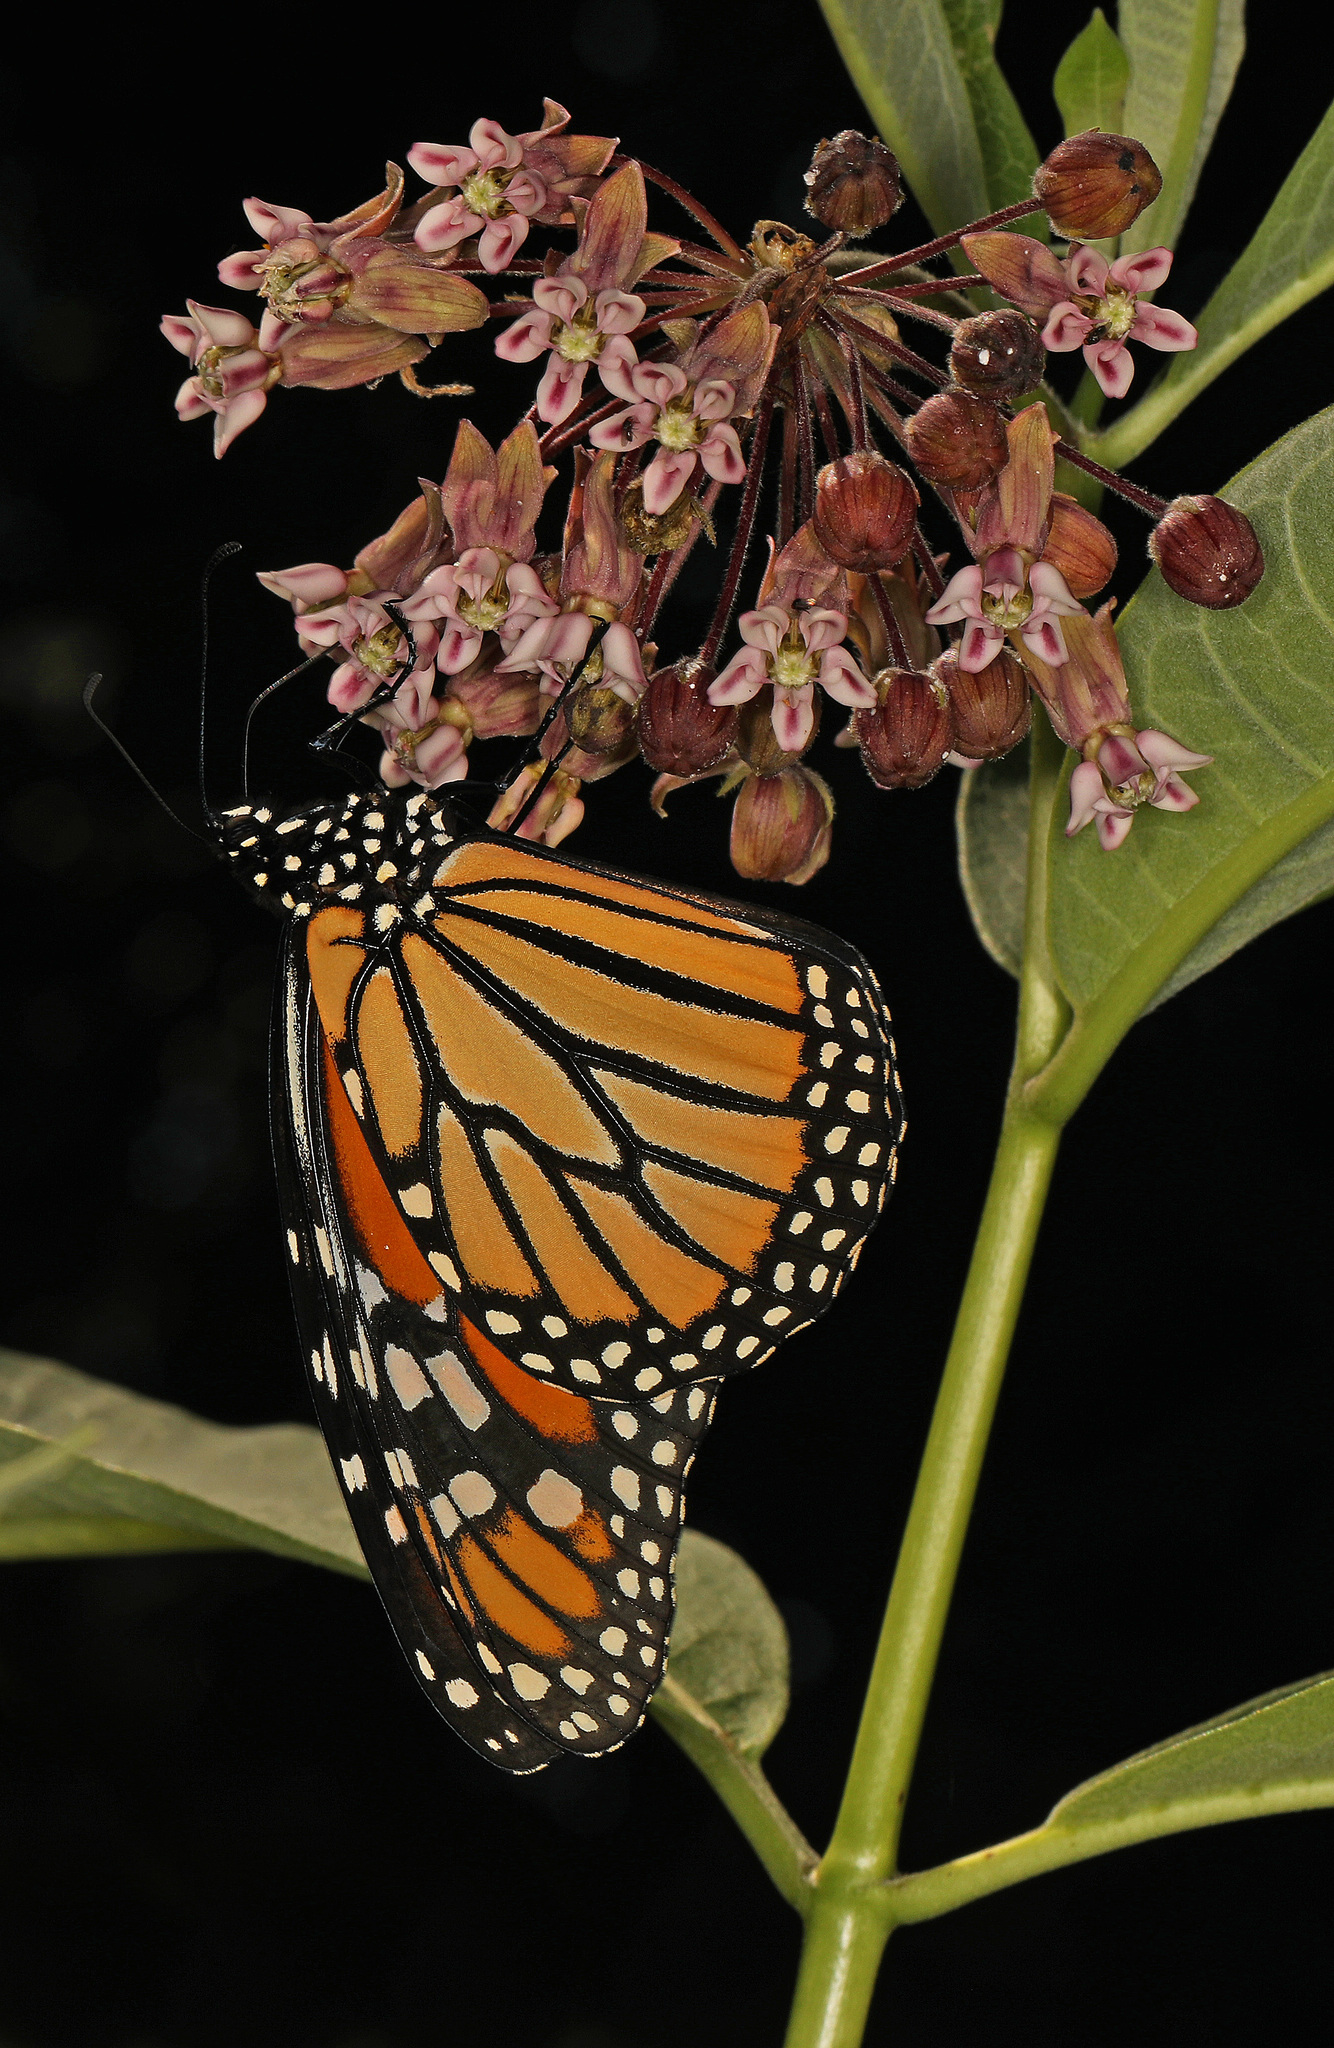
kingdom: Animalia
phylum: Arthropoda
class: Insecta
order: Lepidoptera
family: Nymphalidae
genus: Danaus
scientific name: Danaus plexippus
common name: Monarch
